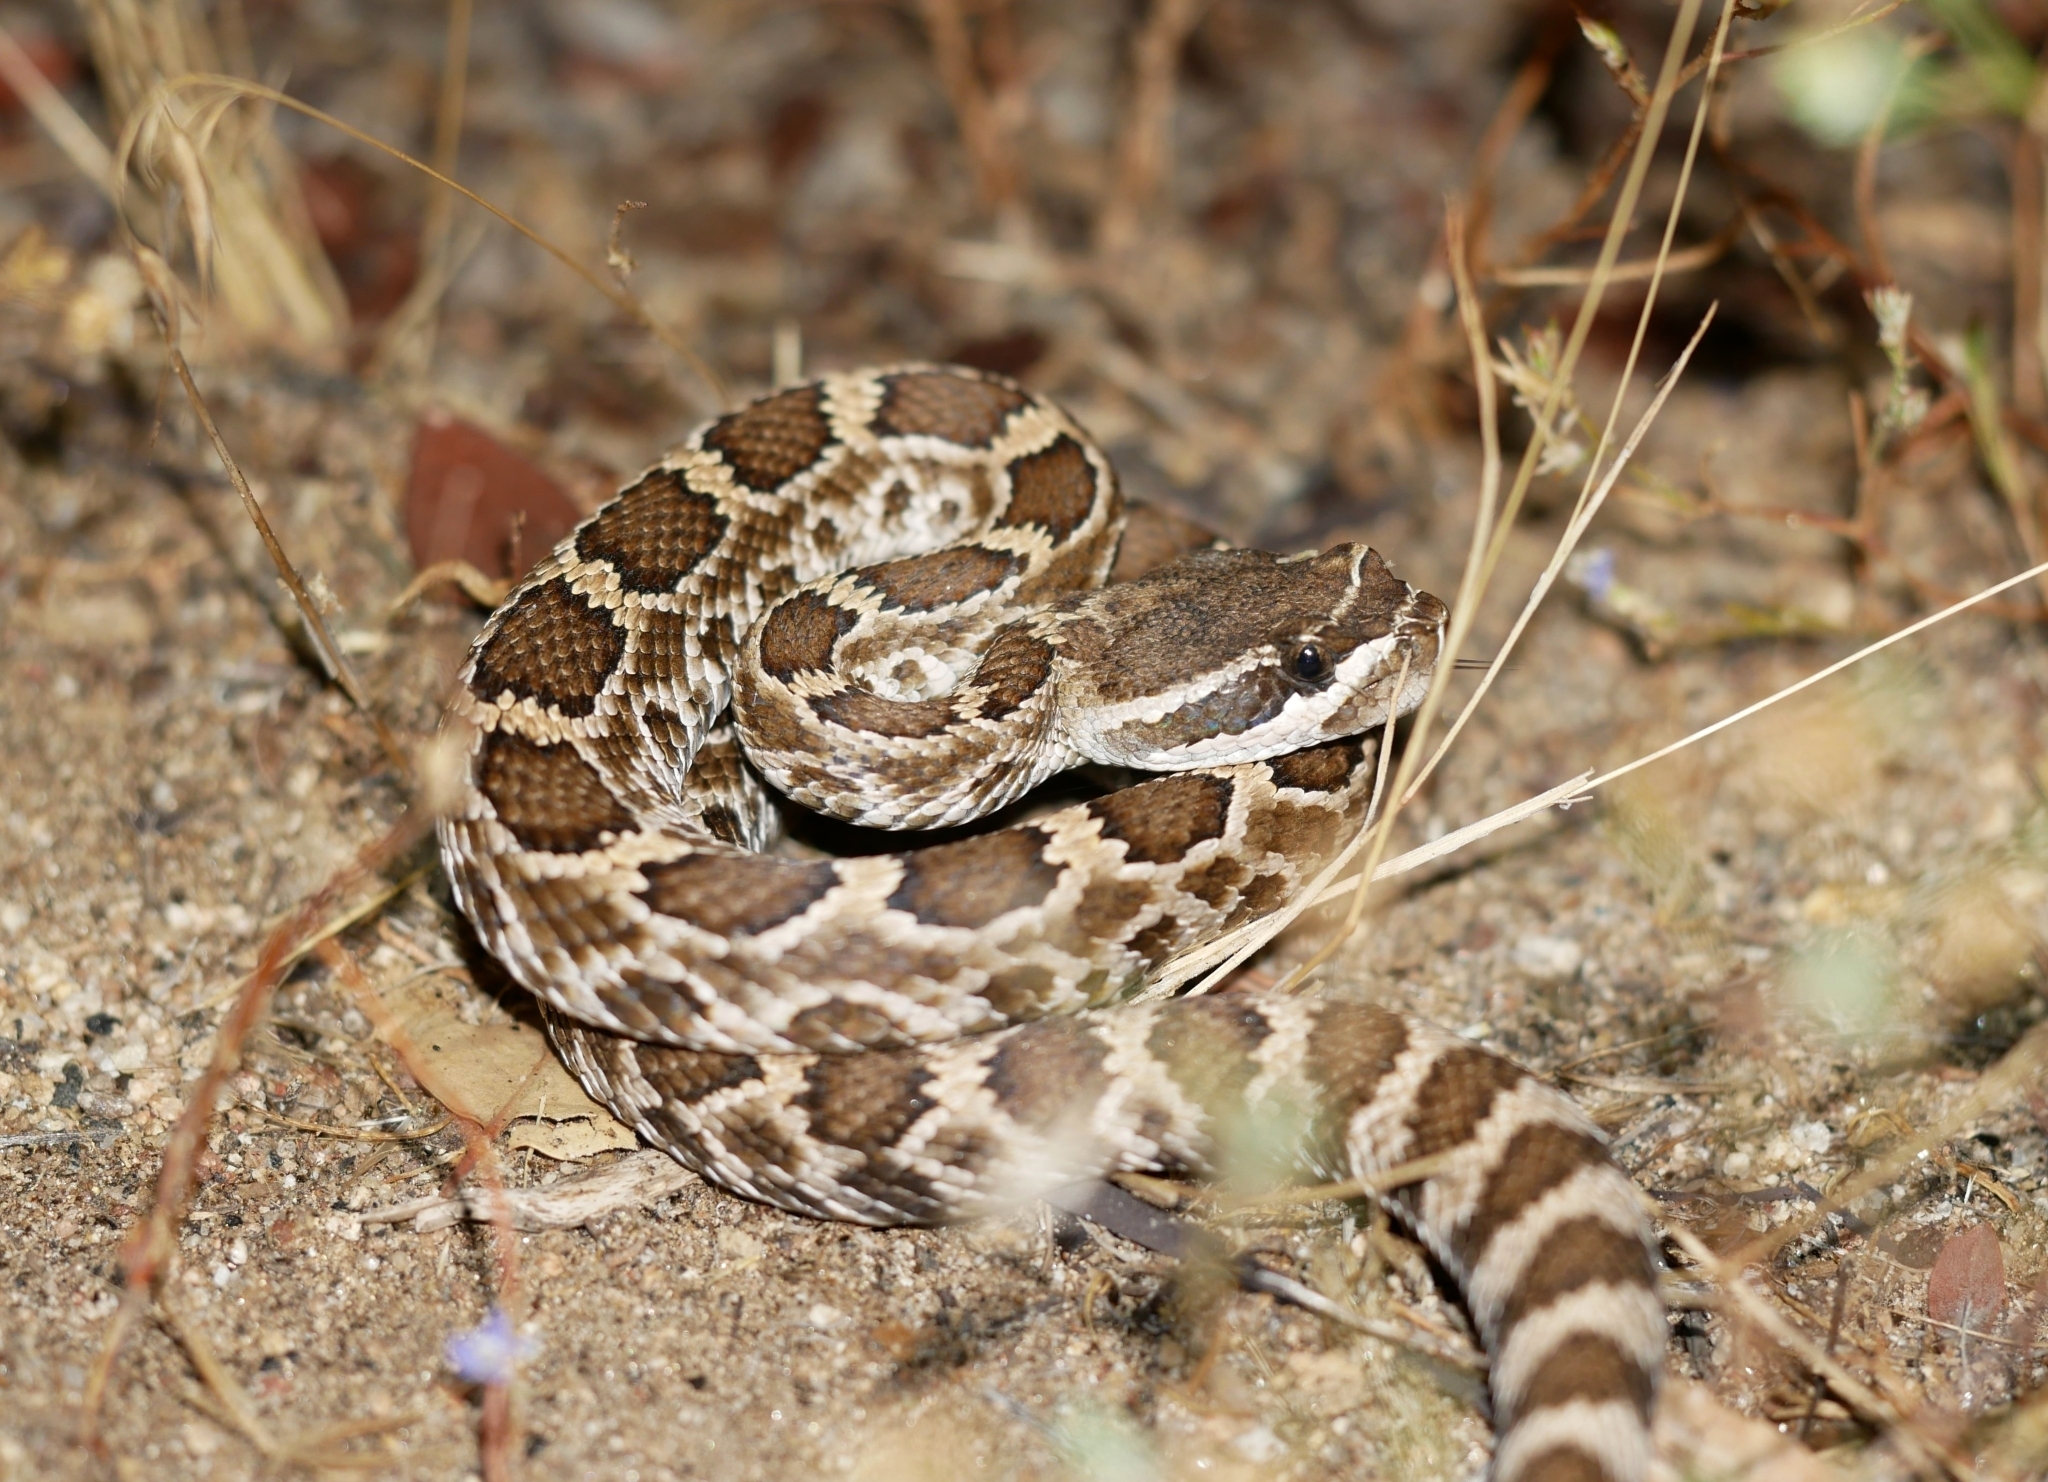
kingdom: Animalia
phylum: Chordata
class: Squamata
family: Viperidae
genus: Crotalus
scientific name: Crotalus oreganus
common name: Abyssus
